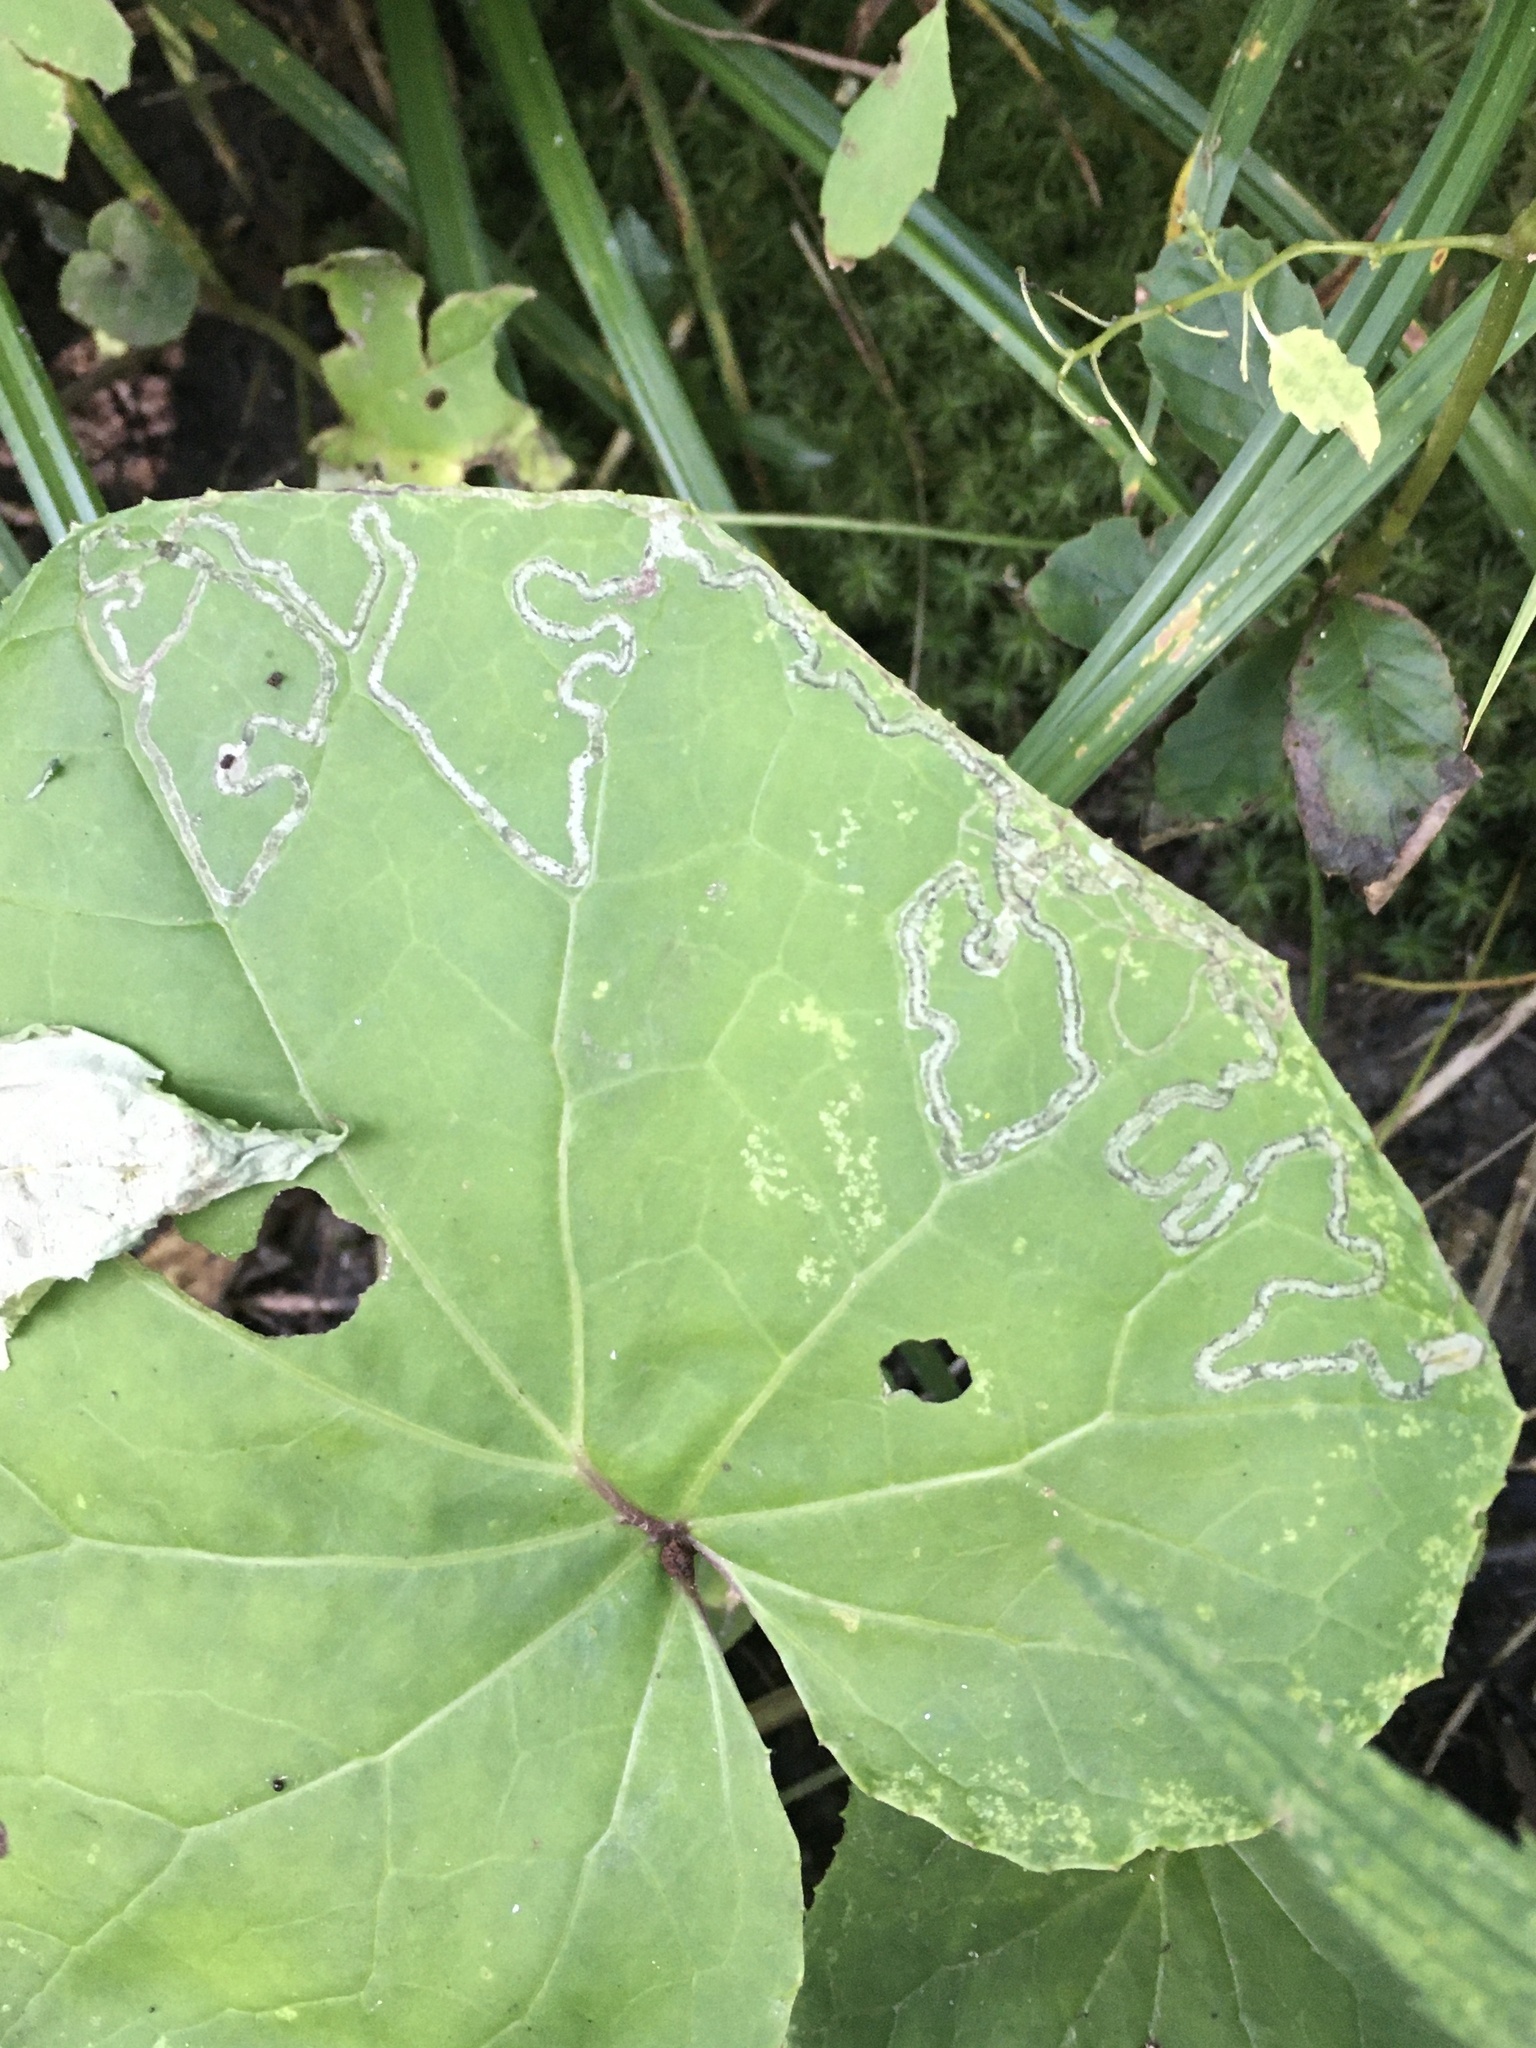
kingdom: Animalia
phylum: Arthropoda
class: Insecta
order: Lepidoptera
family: Gracillariidae
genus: Phyllocnistis
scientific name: Phyllocnistis insignis
